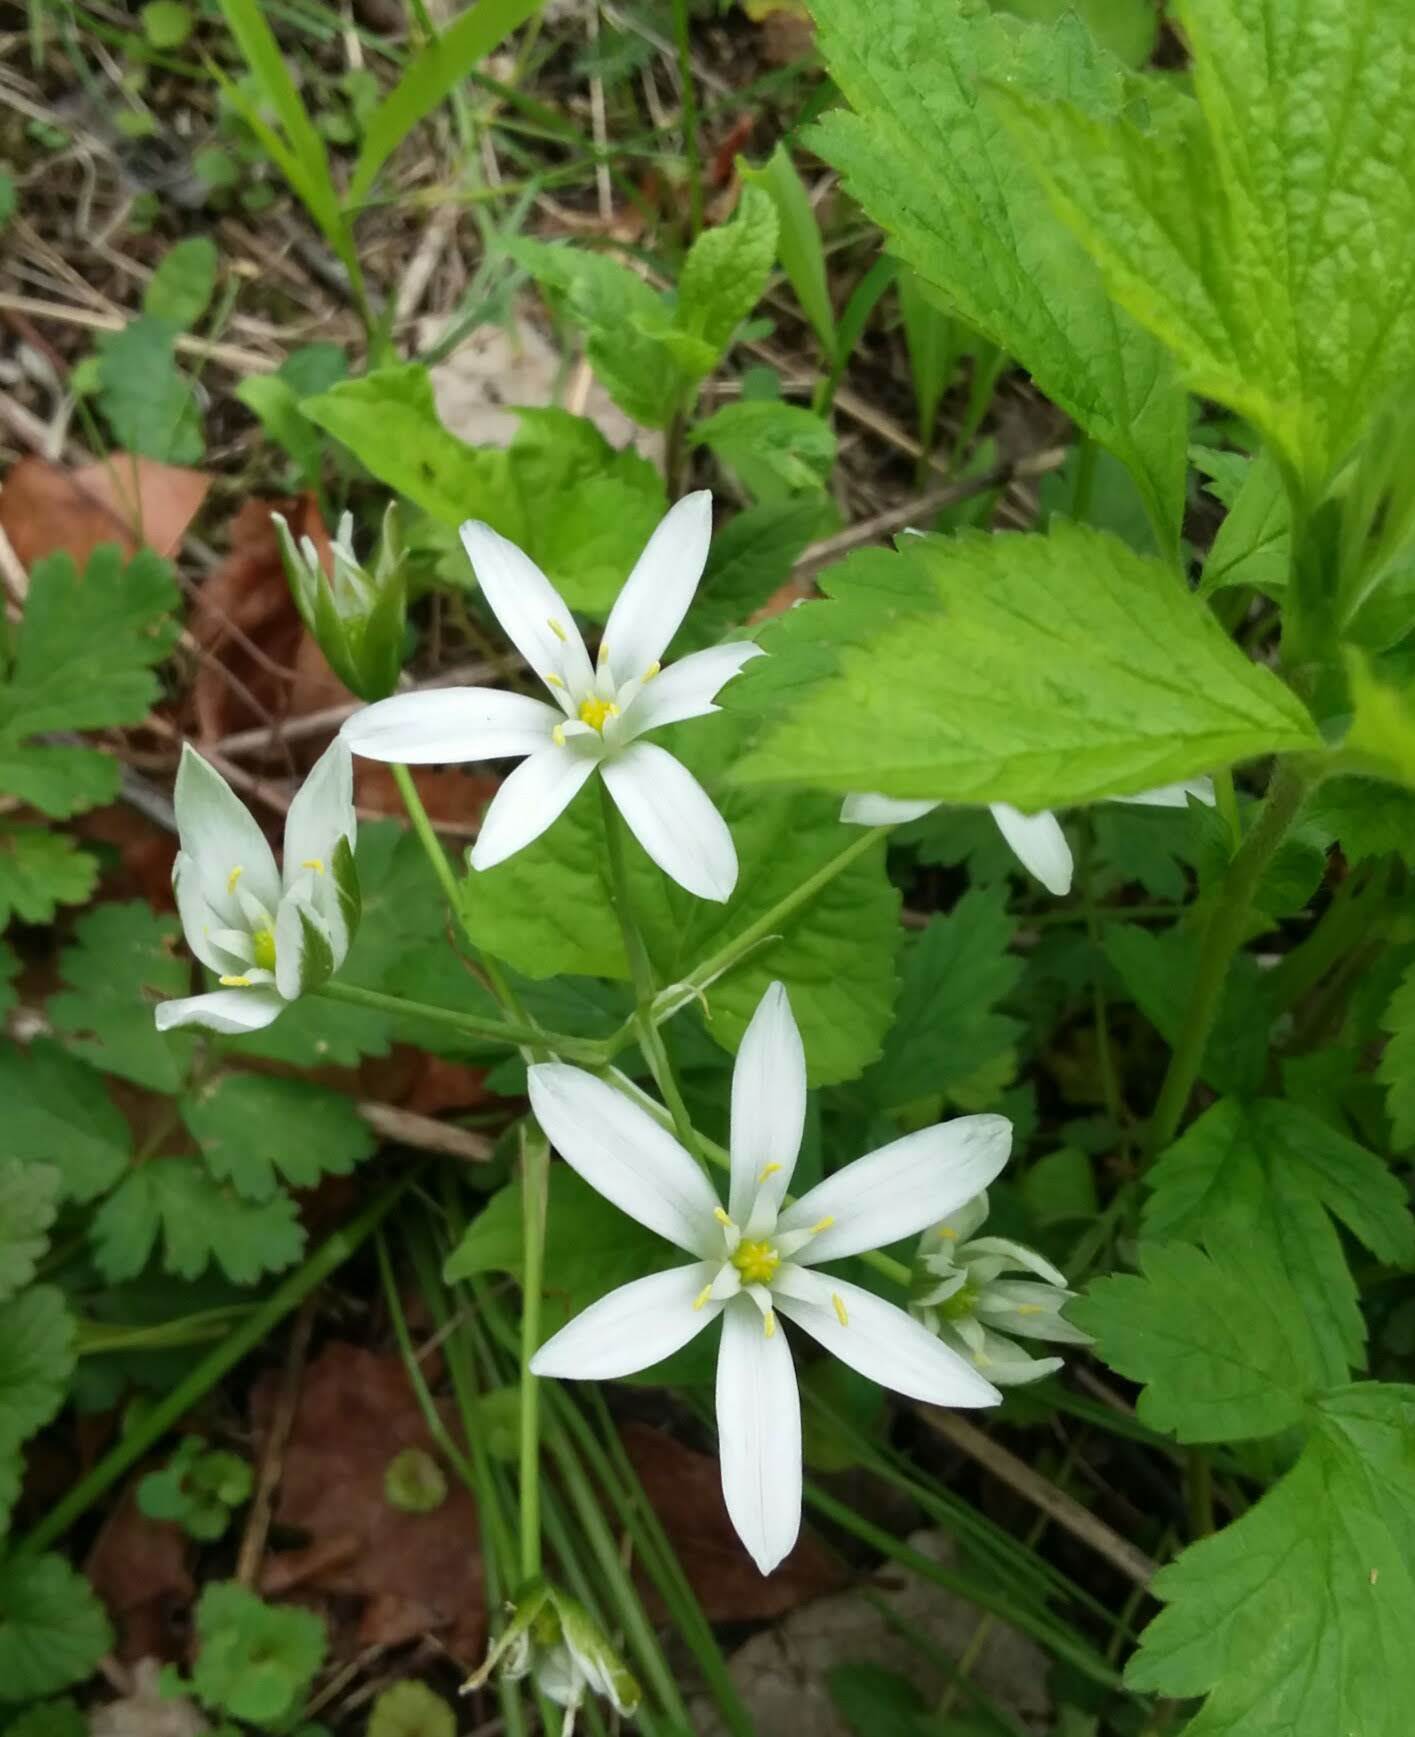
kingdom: Plantae
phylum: Tracheophyta
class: Liliopsida
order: Asparagales
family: Asparagaceae
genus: Ornithogalum
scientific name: Ornithogalum umbellatum
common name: Garden star-of-bethlehem
